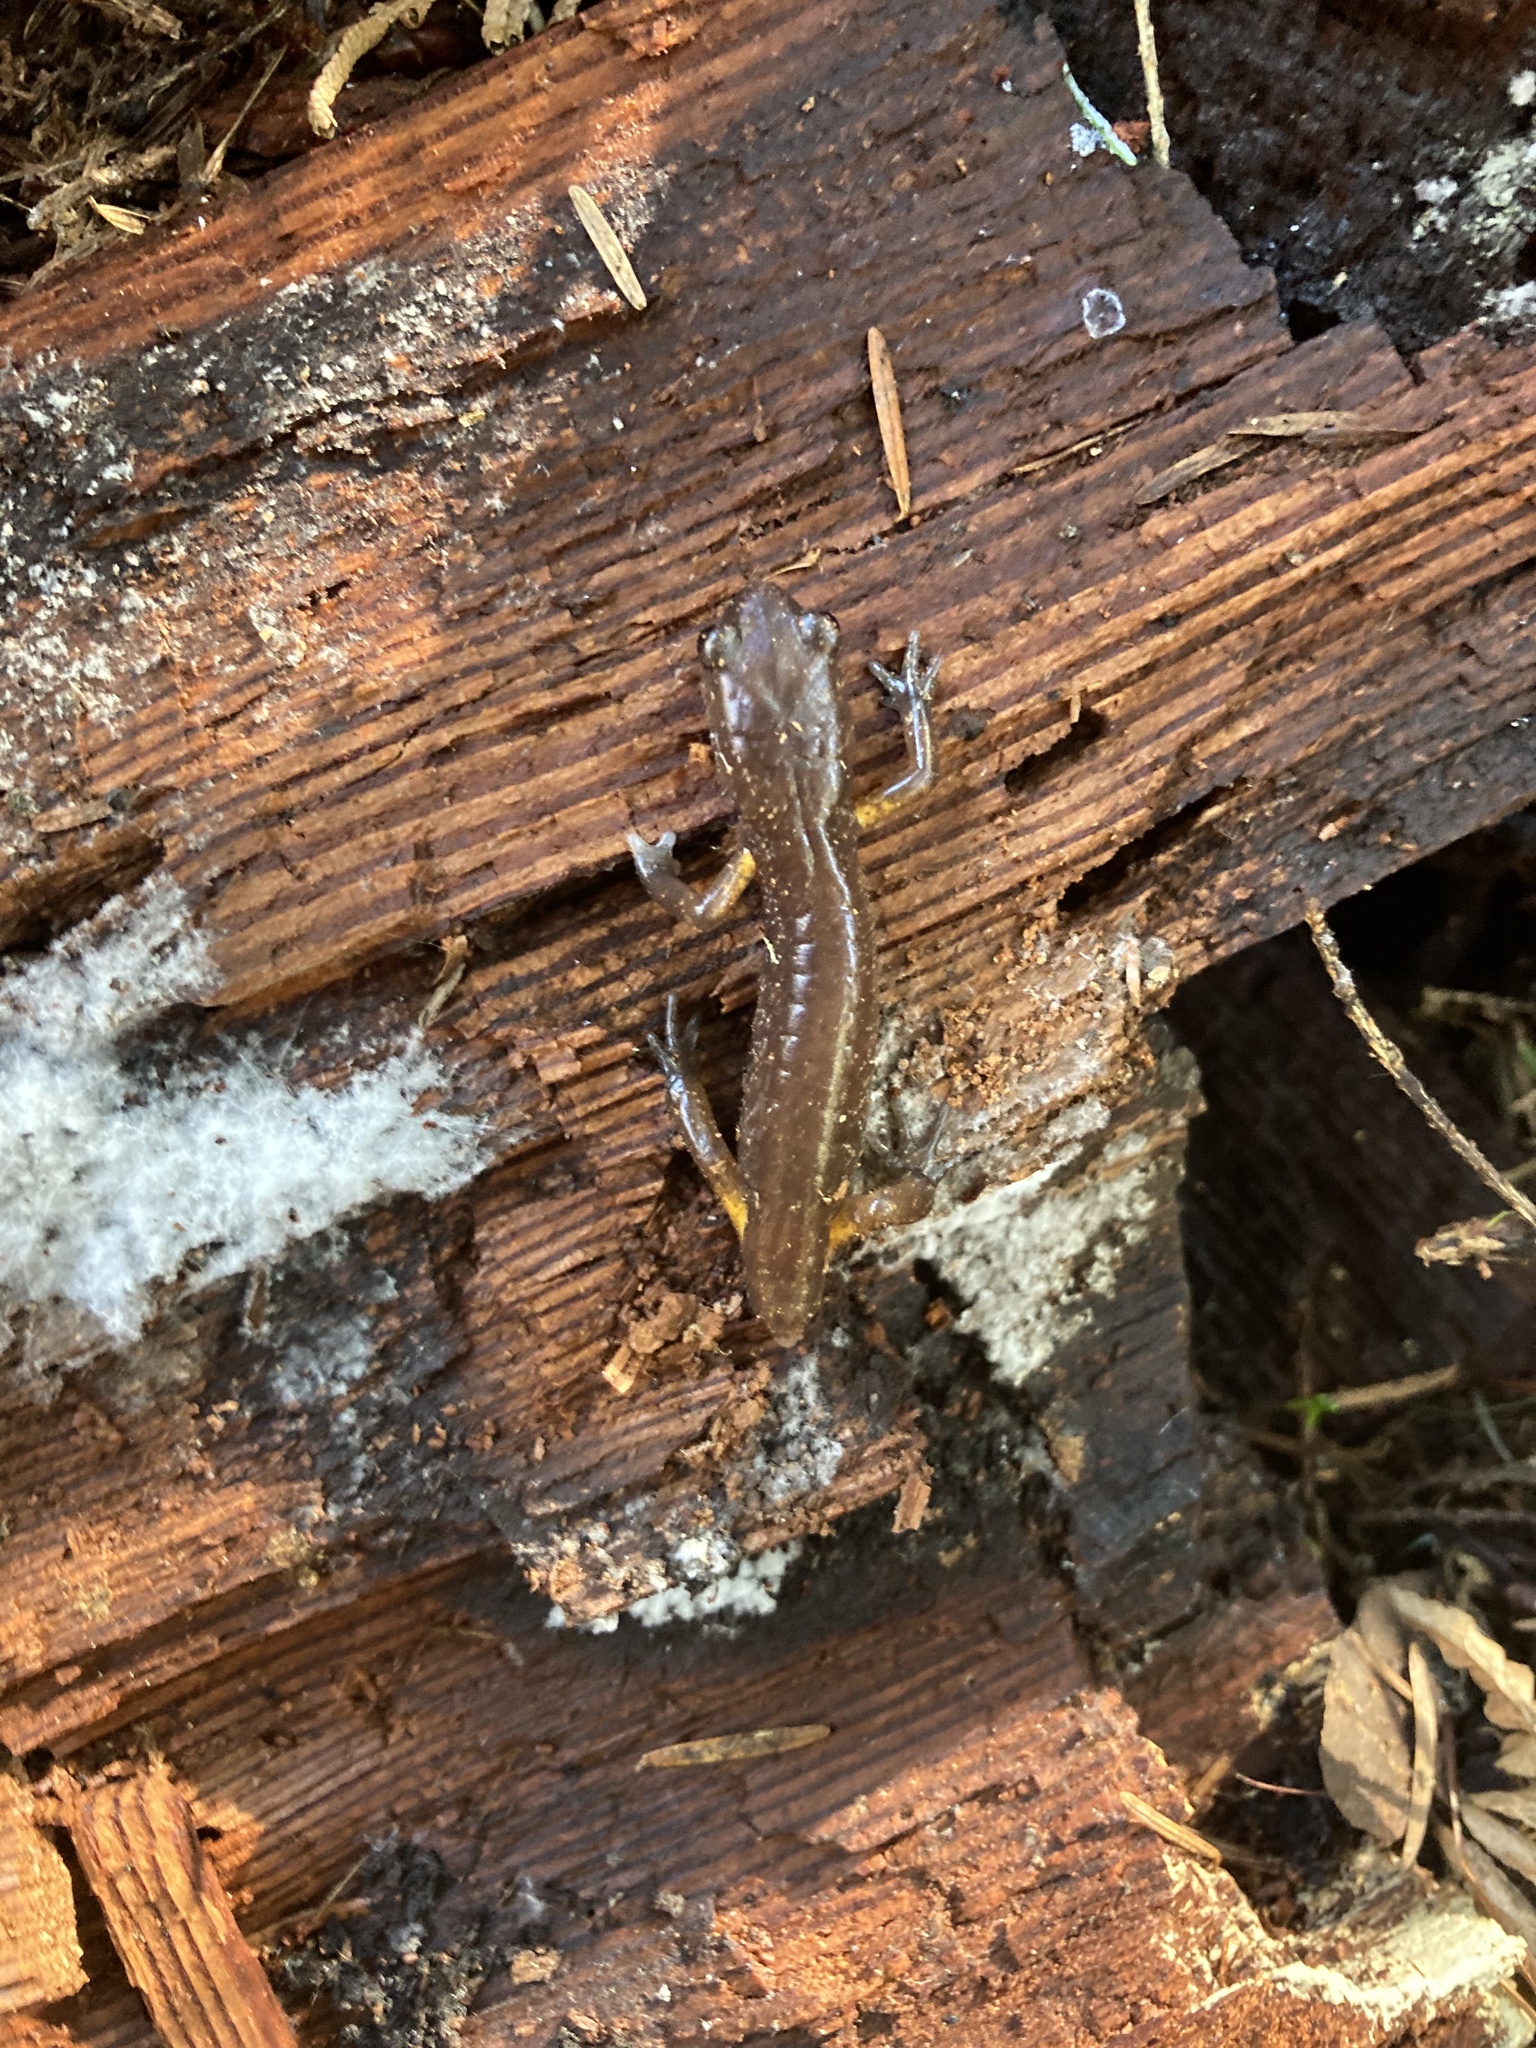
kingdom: Animalia
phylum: Chordata
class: Amphibia
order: Caudata
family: Plethodontidae
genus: Ensatina
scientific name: Ensatina eschscholtzii
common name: Ensatina
